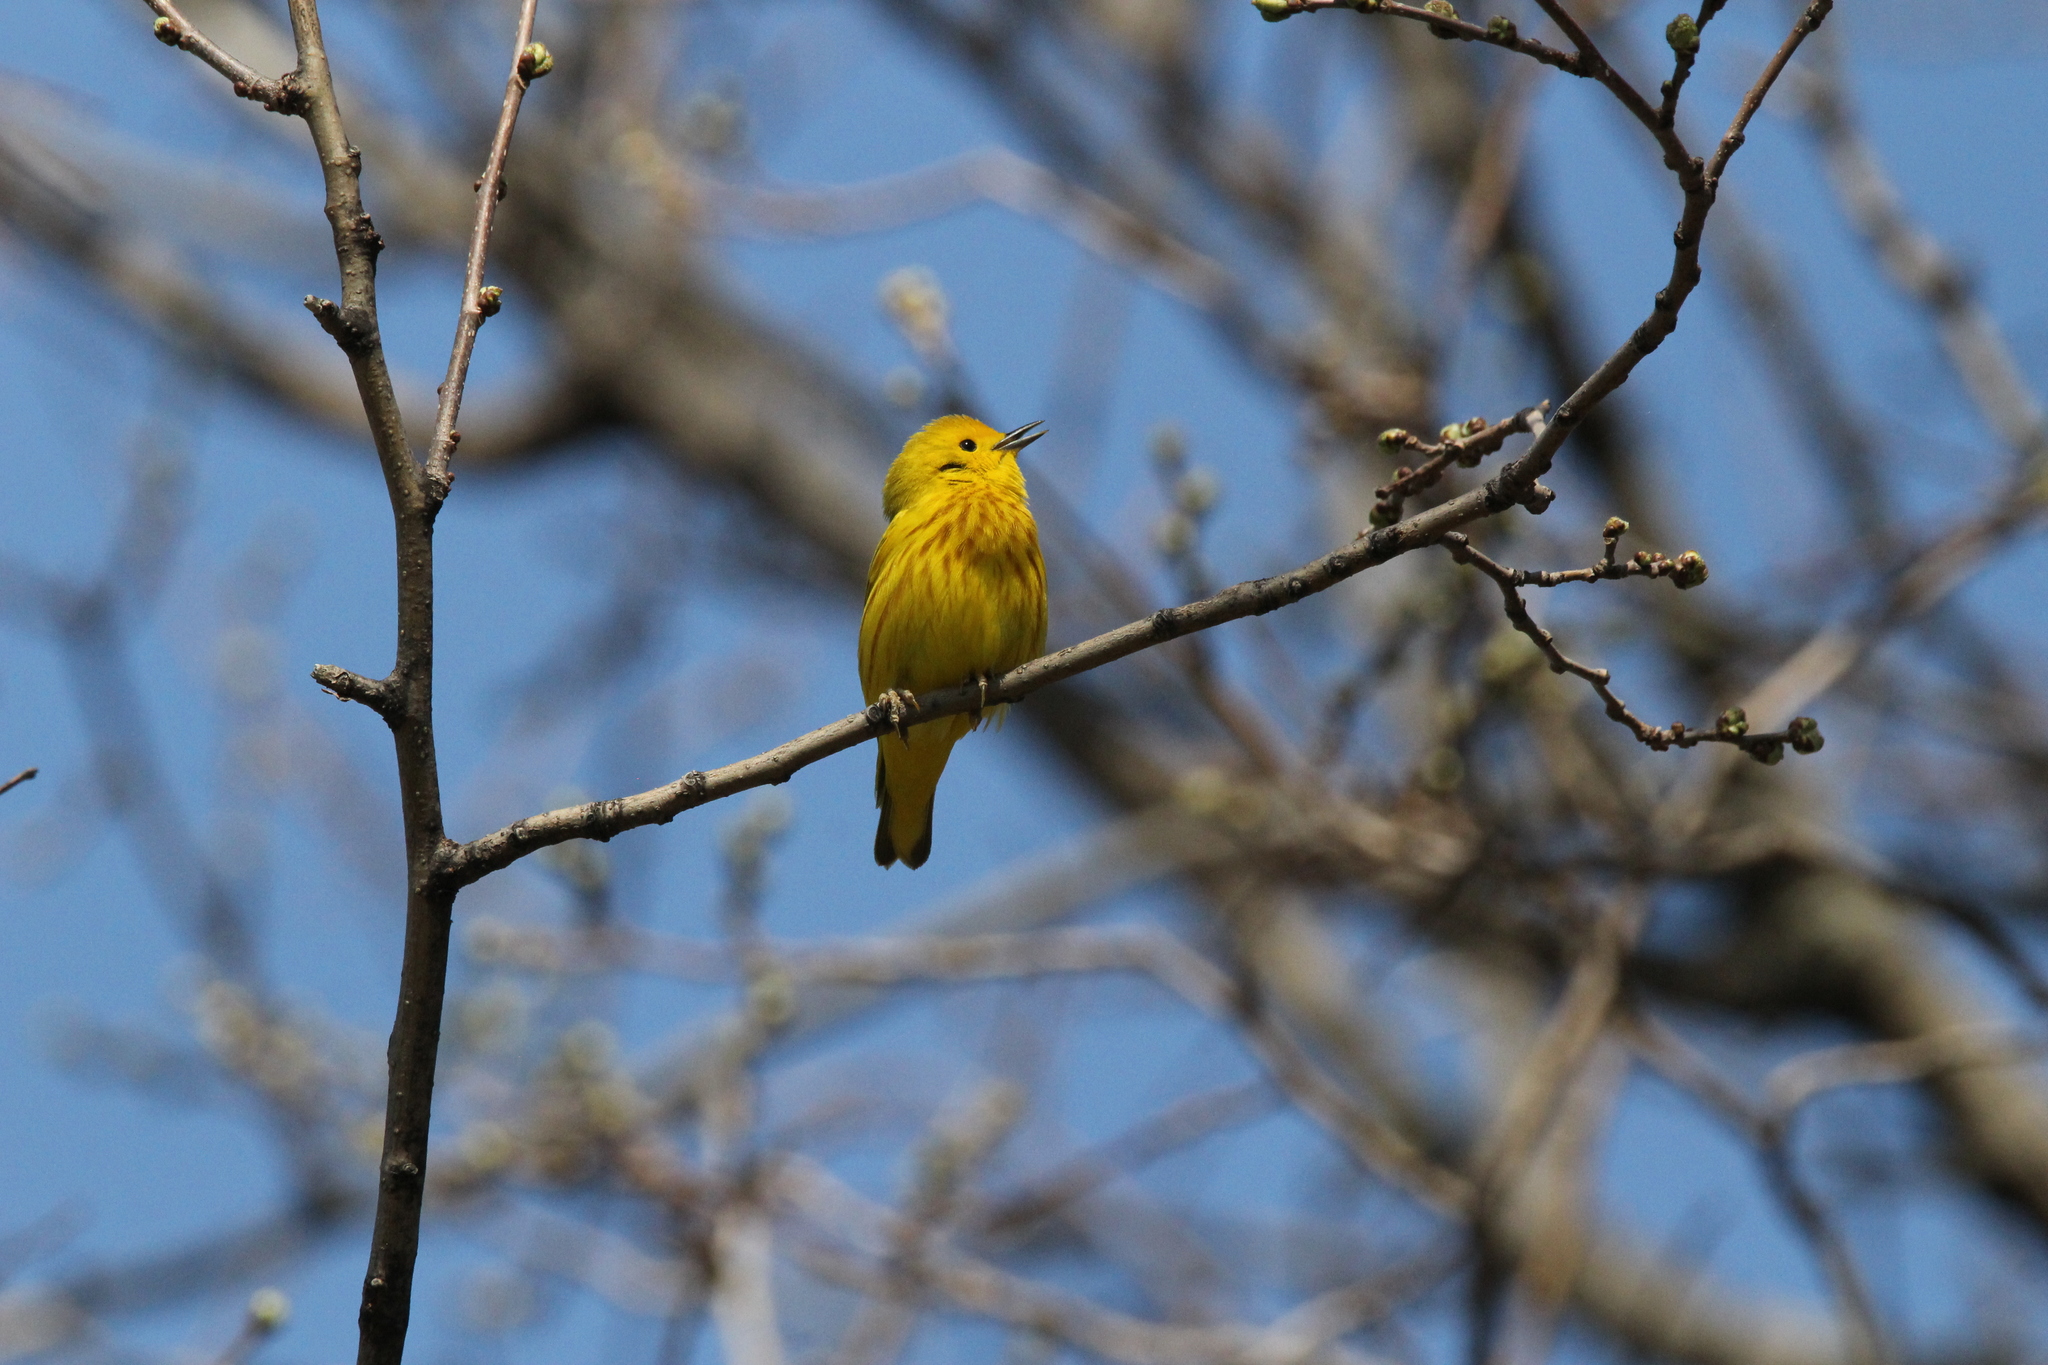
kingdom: Animalia
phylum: Chordata
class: Aves
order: Passeriformes
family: Parulidae
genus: Setophaga
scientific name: Setophaga petechia
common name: Yellow warbler
